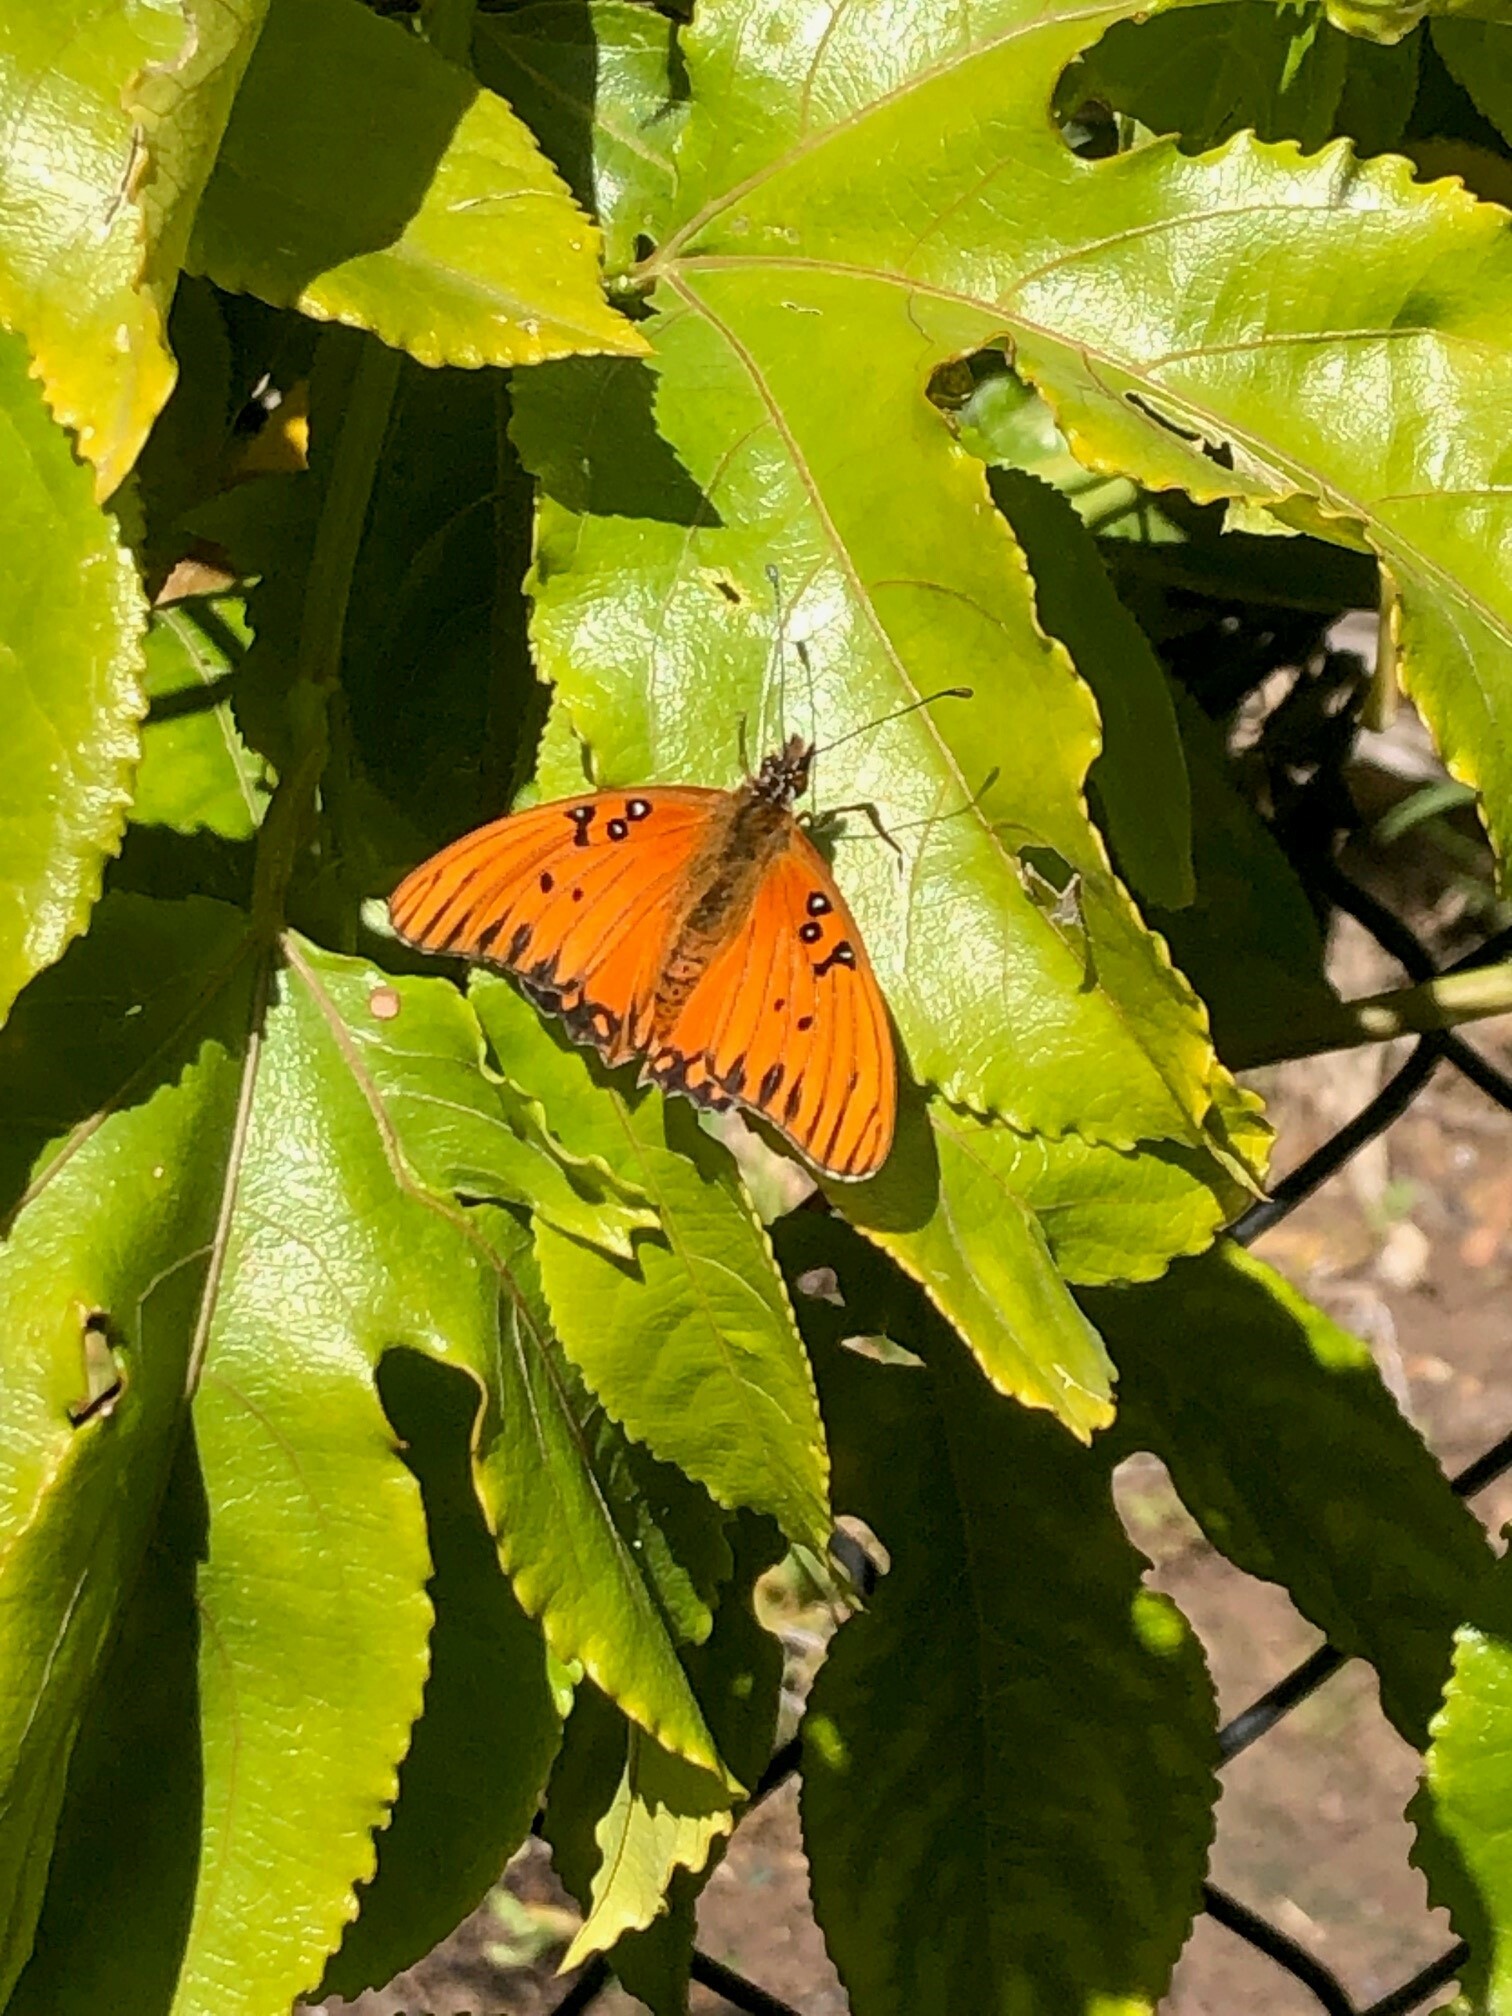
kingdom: Animalia
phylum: Arthropoda
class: Insecta
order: Lepidoptera
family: Nymphalidae
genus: Dione
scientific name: Dione vanillae
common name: Gulf fritillary
